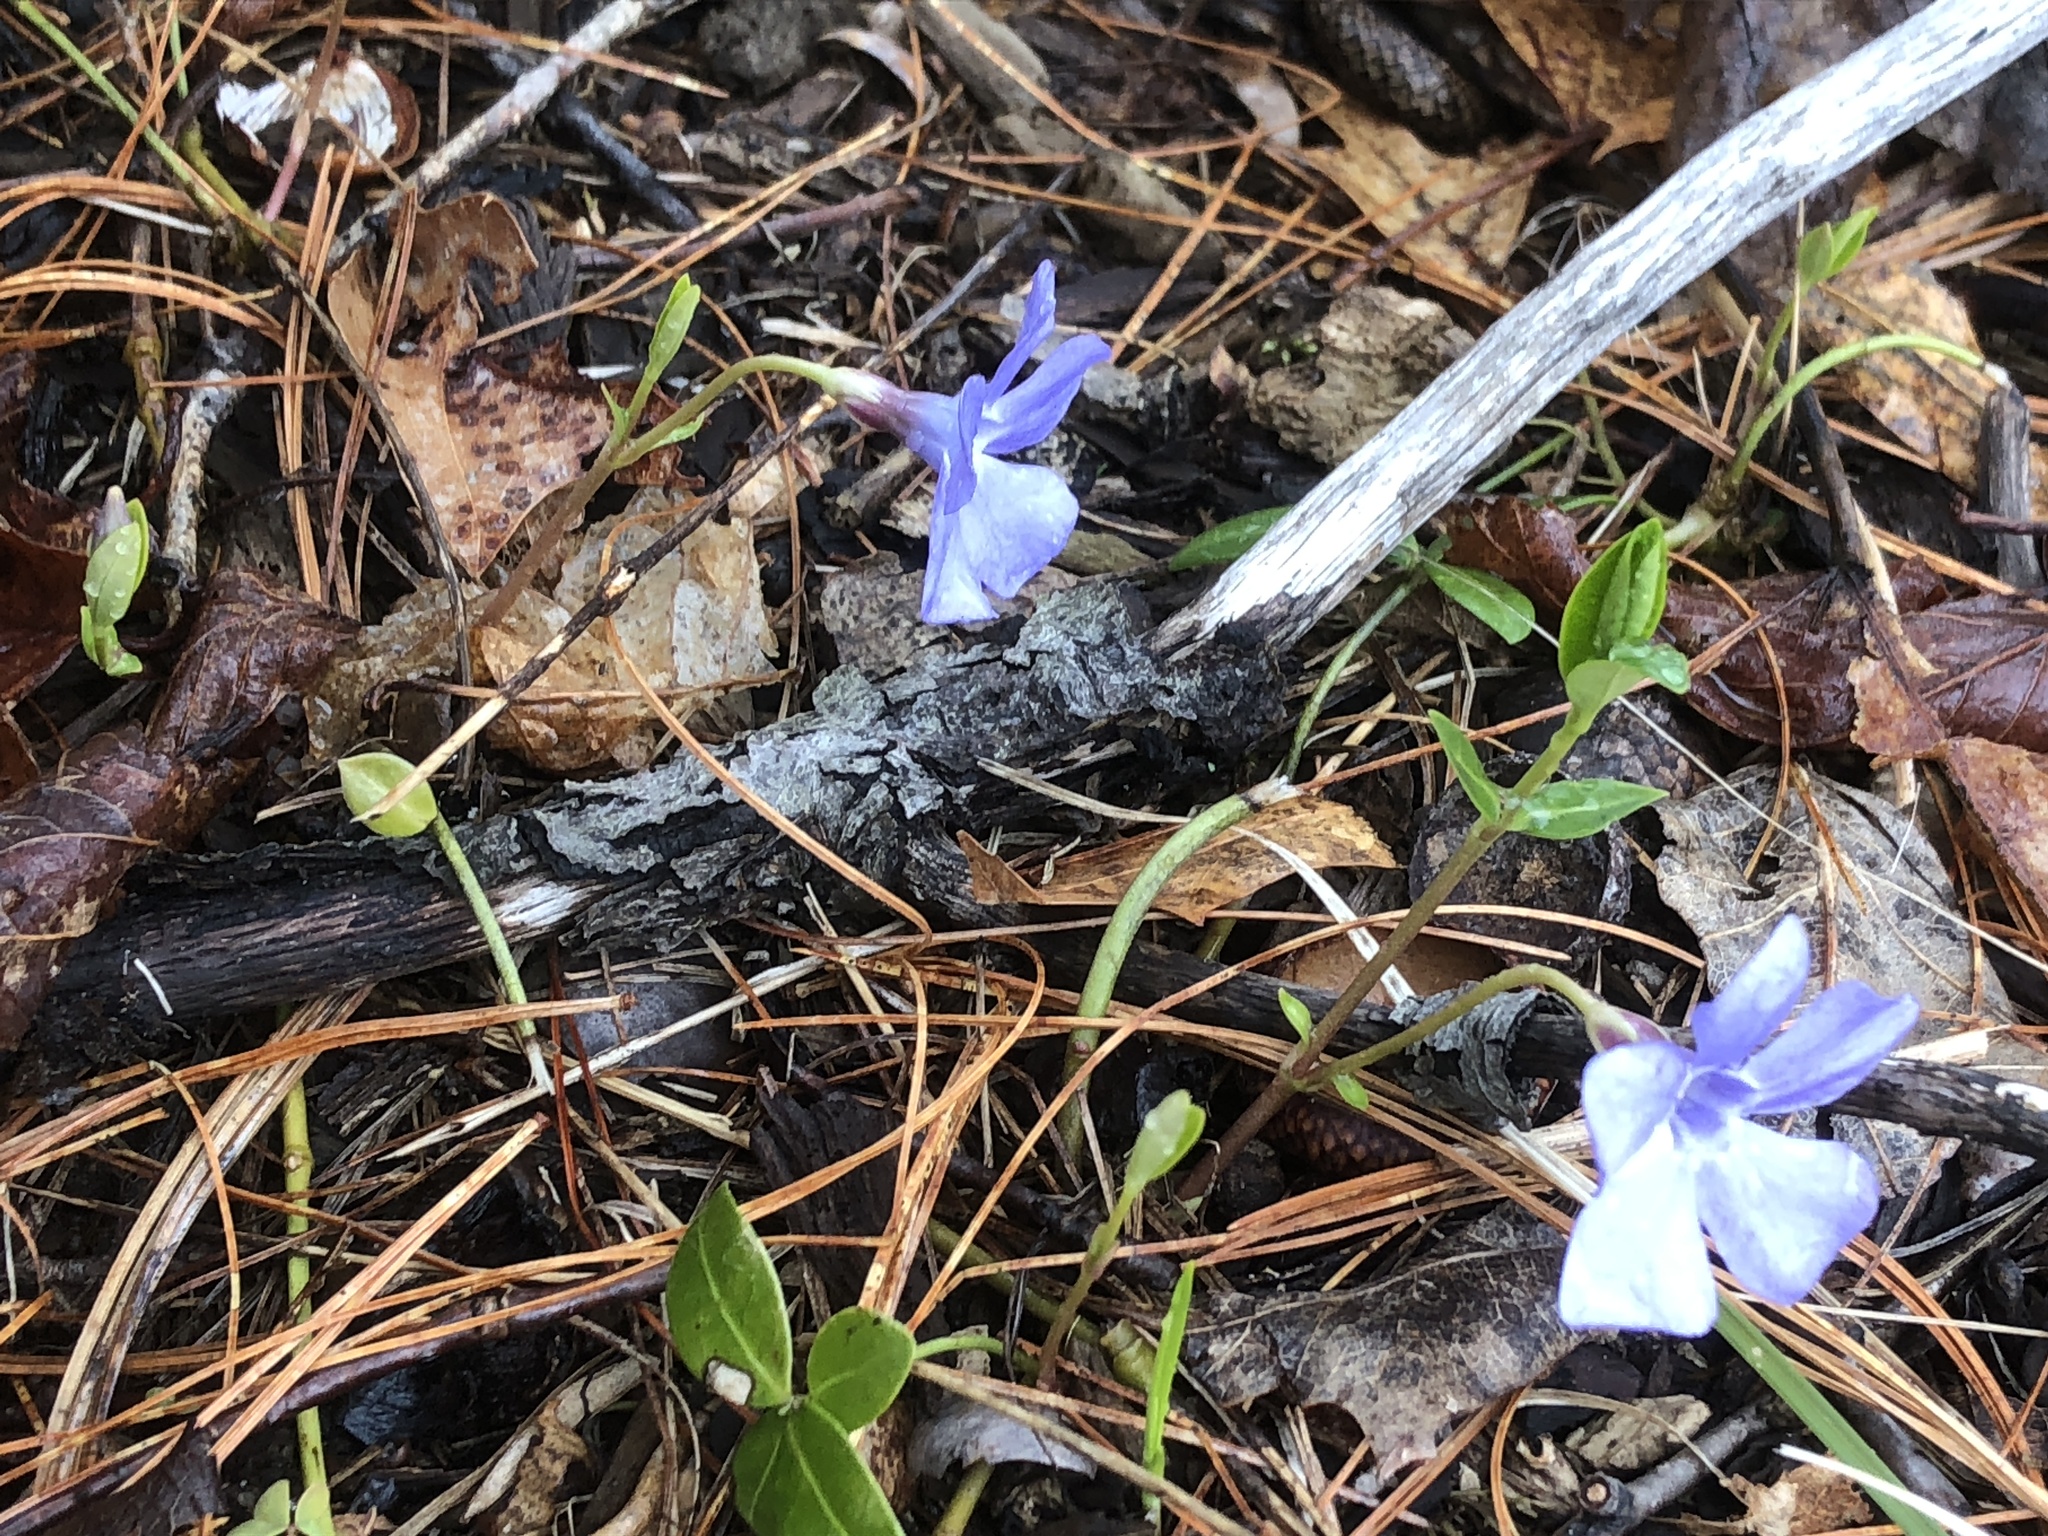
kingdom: Plantae
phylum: Tracheophyta
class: Magnoliopsida
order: Gentianales
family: Apocynaceae
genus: Vinca
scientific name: Vinca minor
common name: Lesser periwinkle
